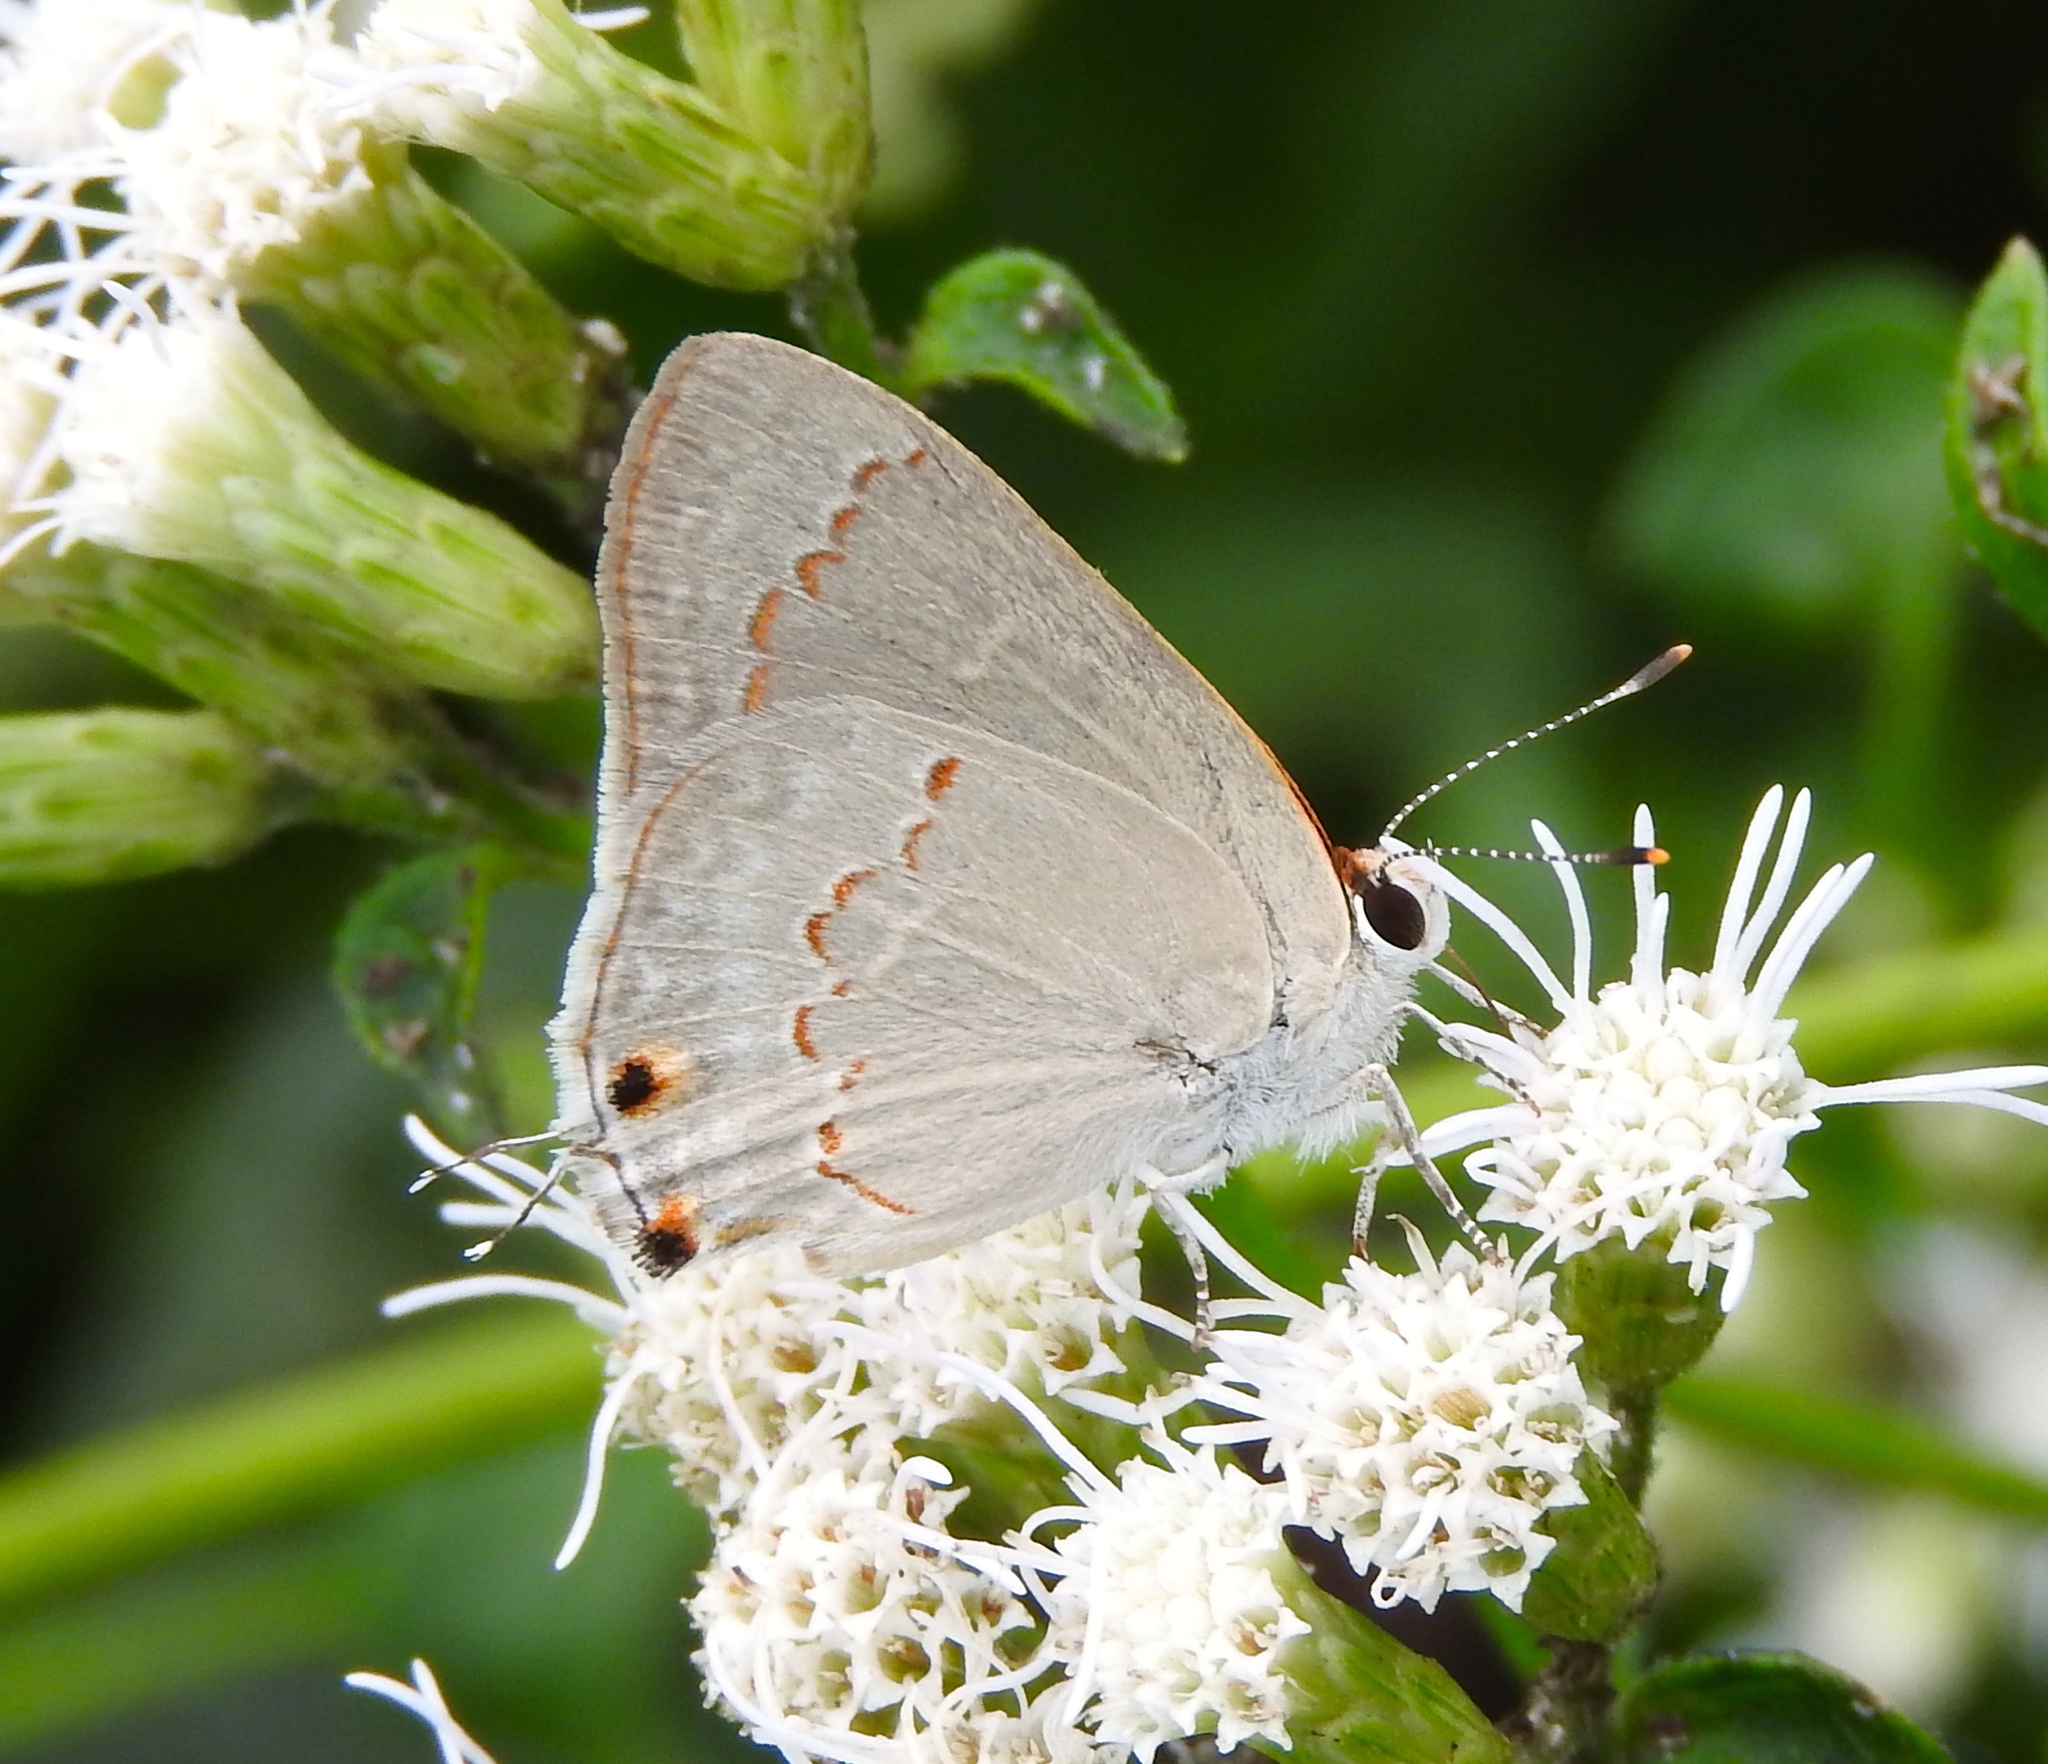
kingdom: Animalia
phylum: Arthropoda
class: Insecta
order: Lepidoptera
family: Lycaenidae
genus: Thecla
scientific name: Thecla rufofusca
